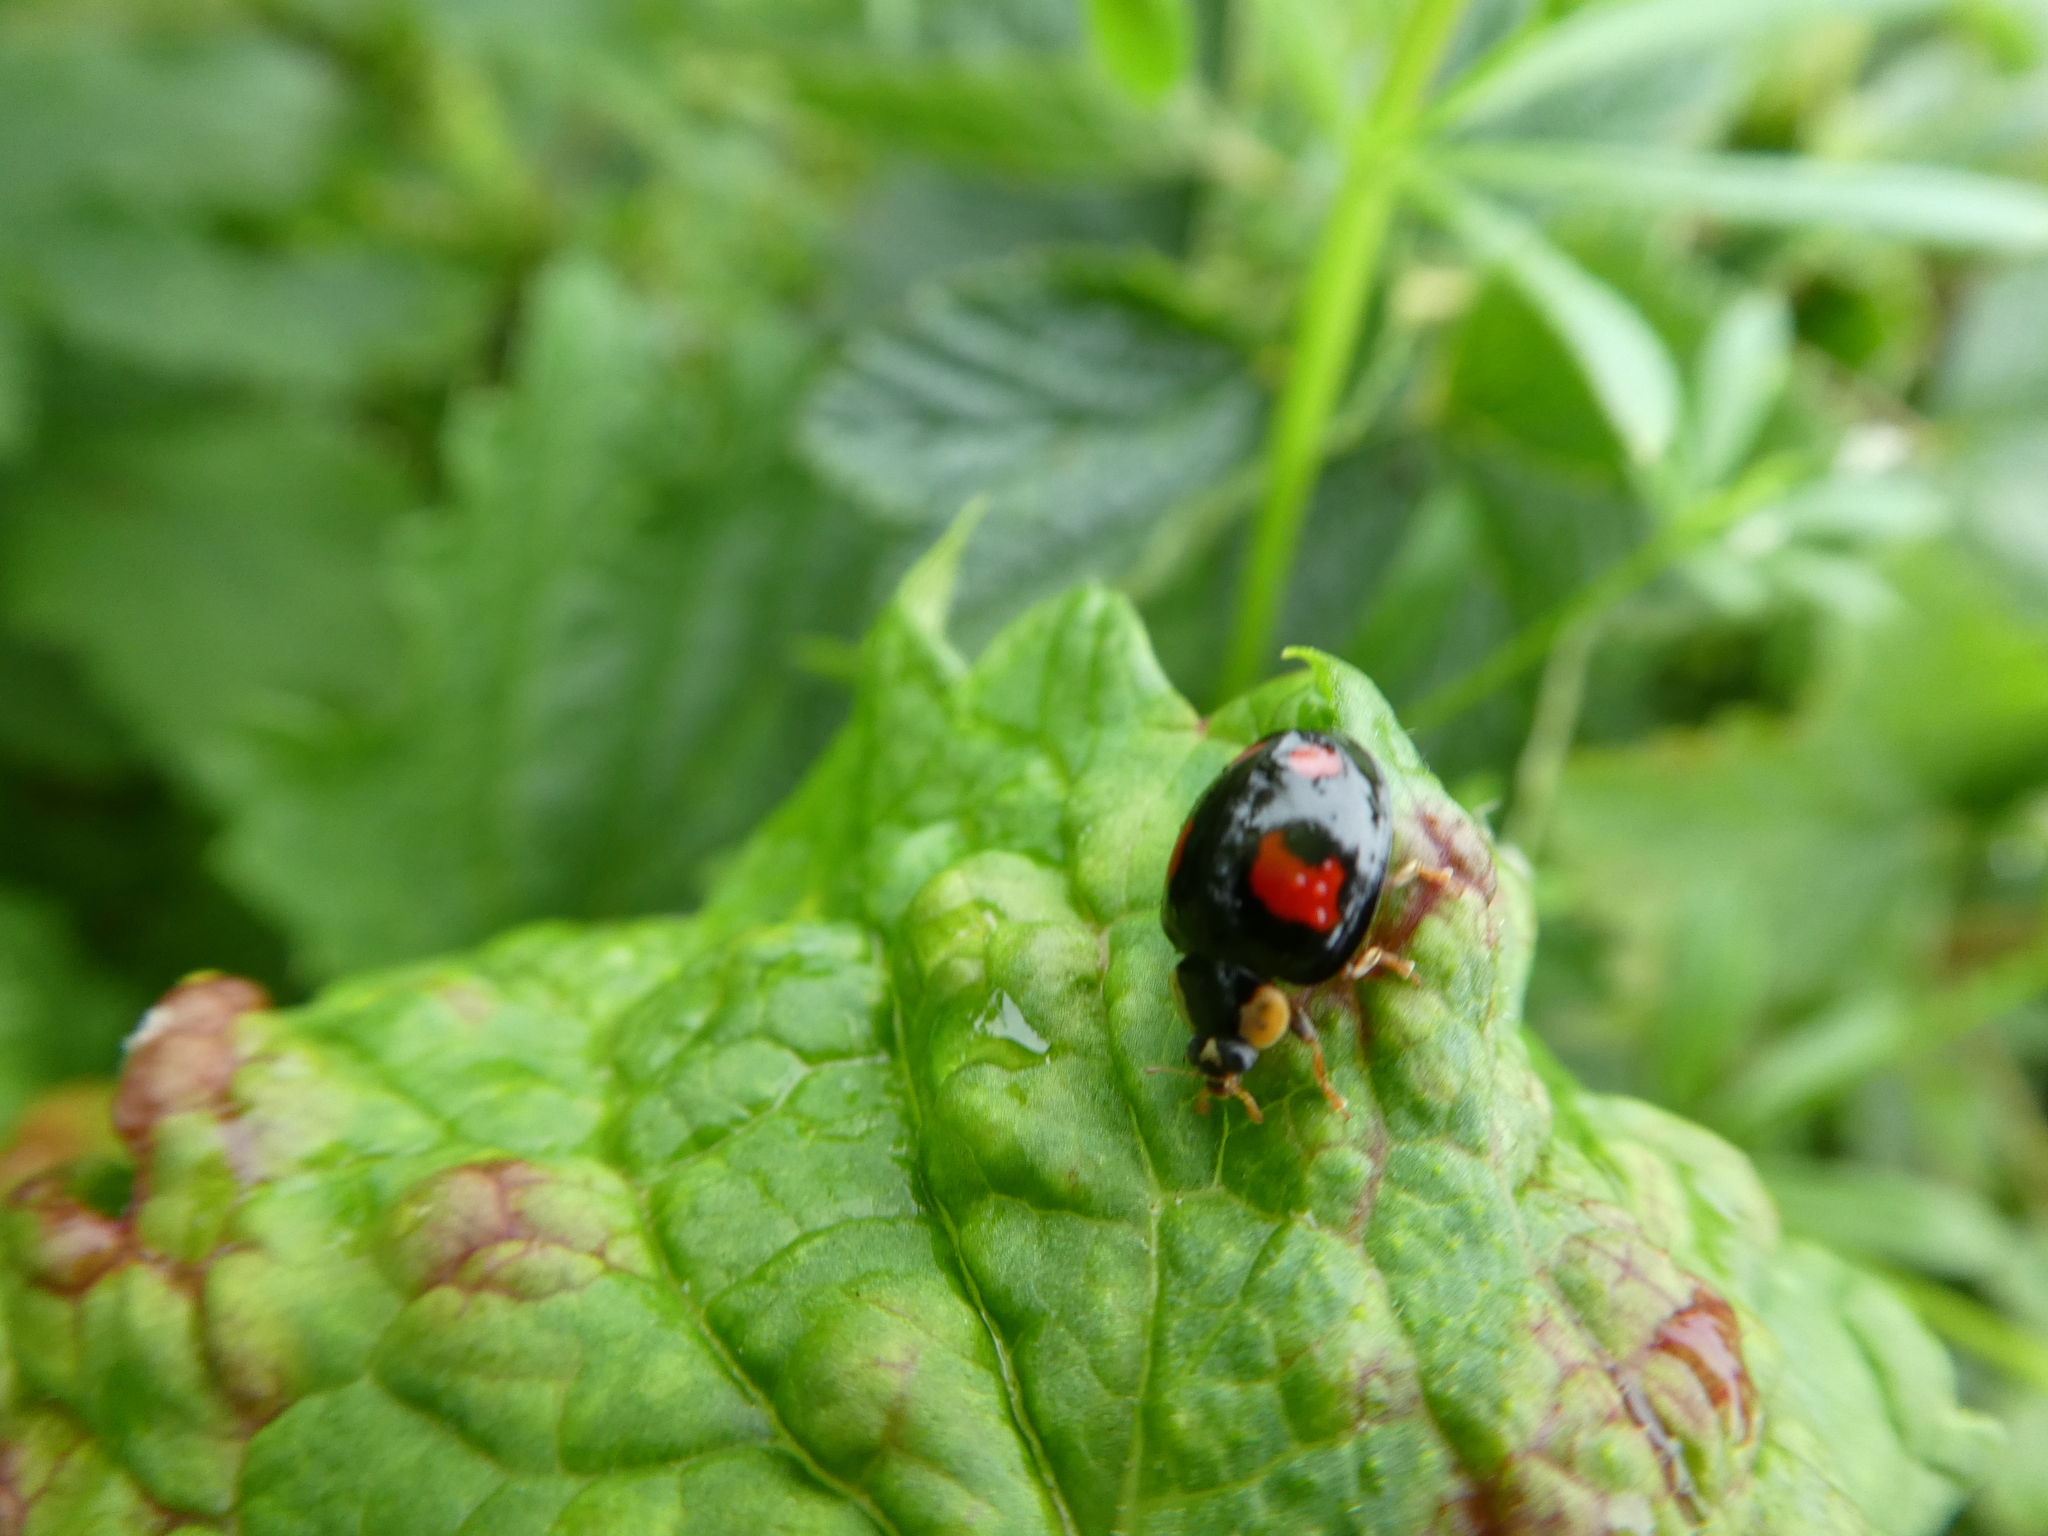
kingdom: Animalia
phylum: Arthropoda
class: Insecta
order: Coleoptera
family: Coccinellidae
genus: Harmonia
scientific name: Harmonia axyridis
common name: Harlequin ladybird
